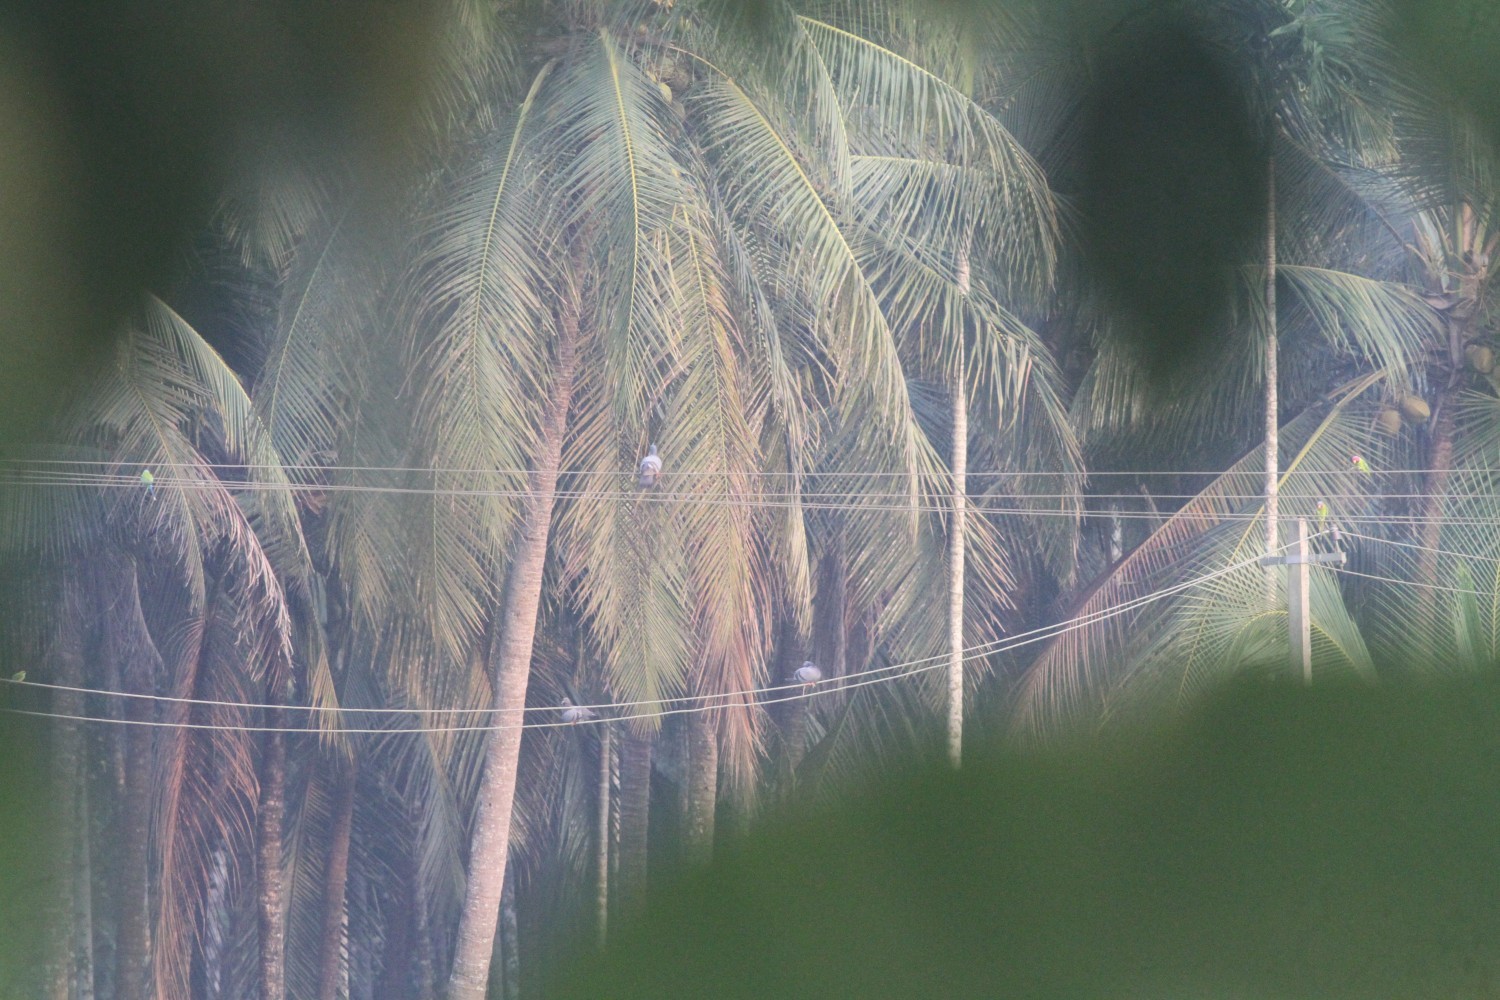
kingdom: Animalia
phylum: Chordata
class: Aves
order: Columbiformes
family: Columbidae
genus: Columba
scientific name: Columba livia
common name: Rock pigeon
